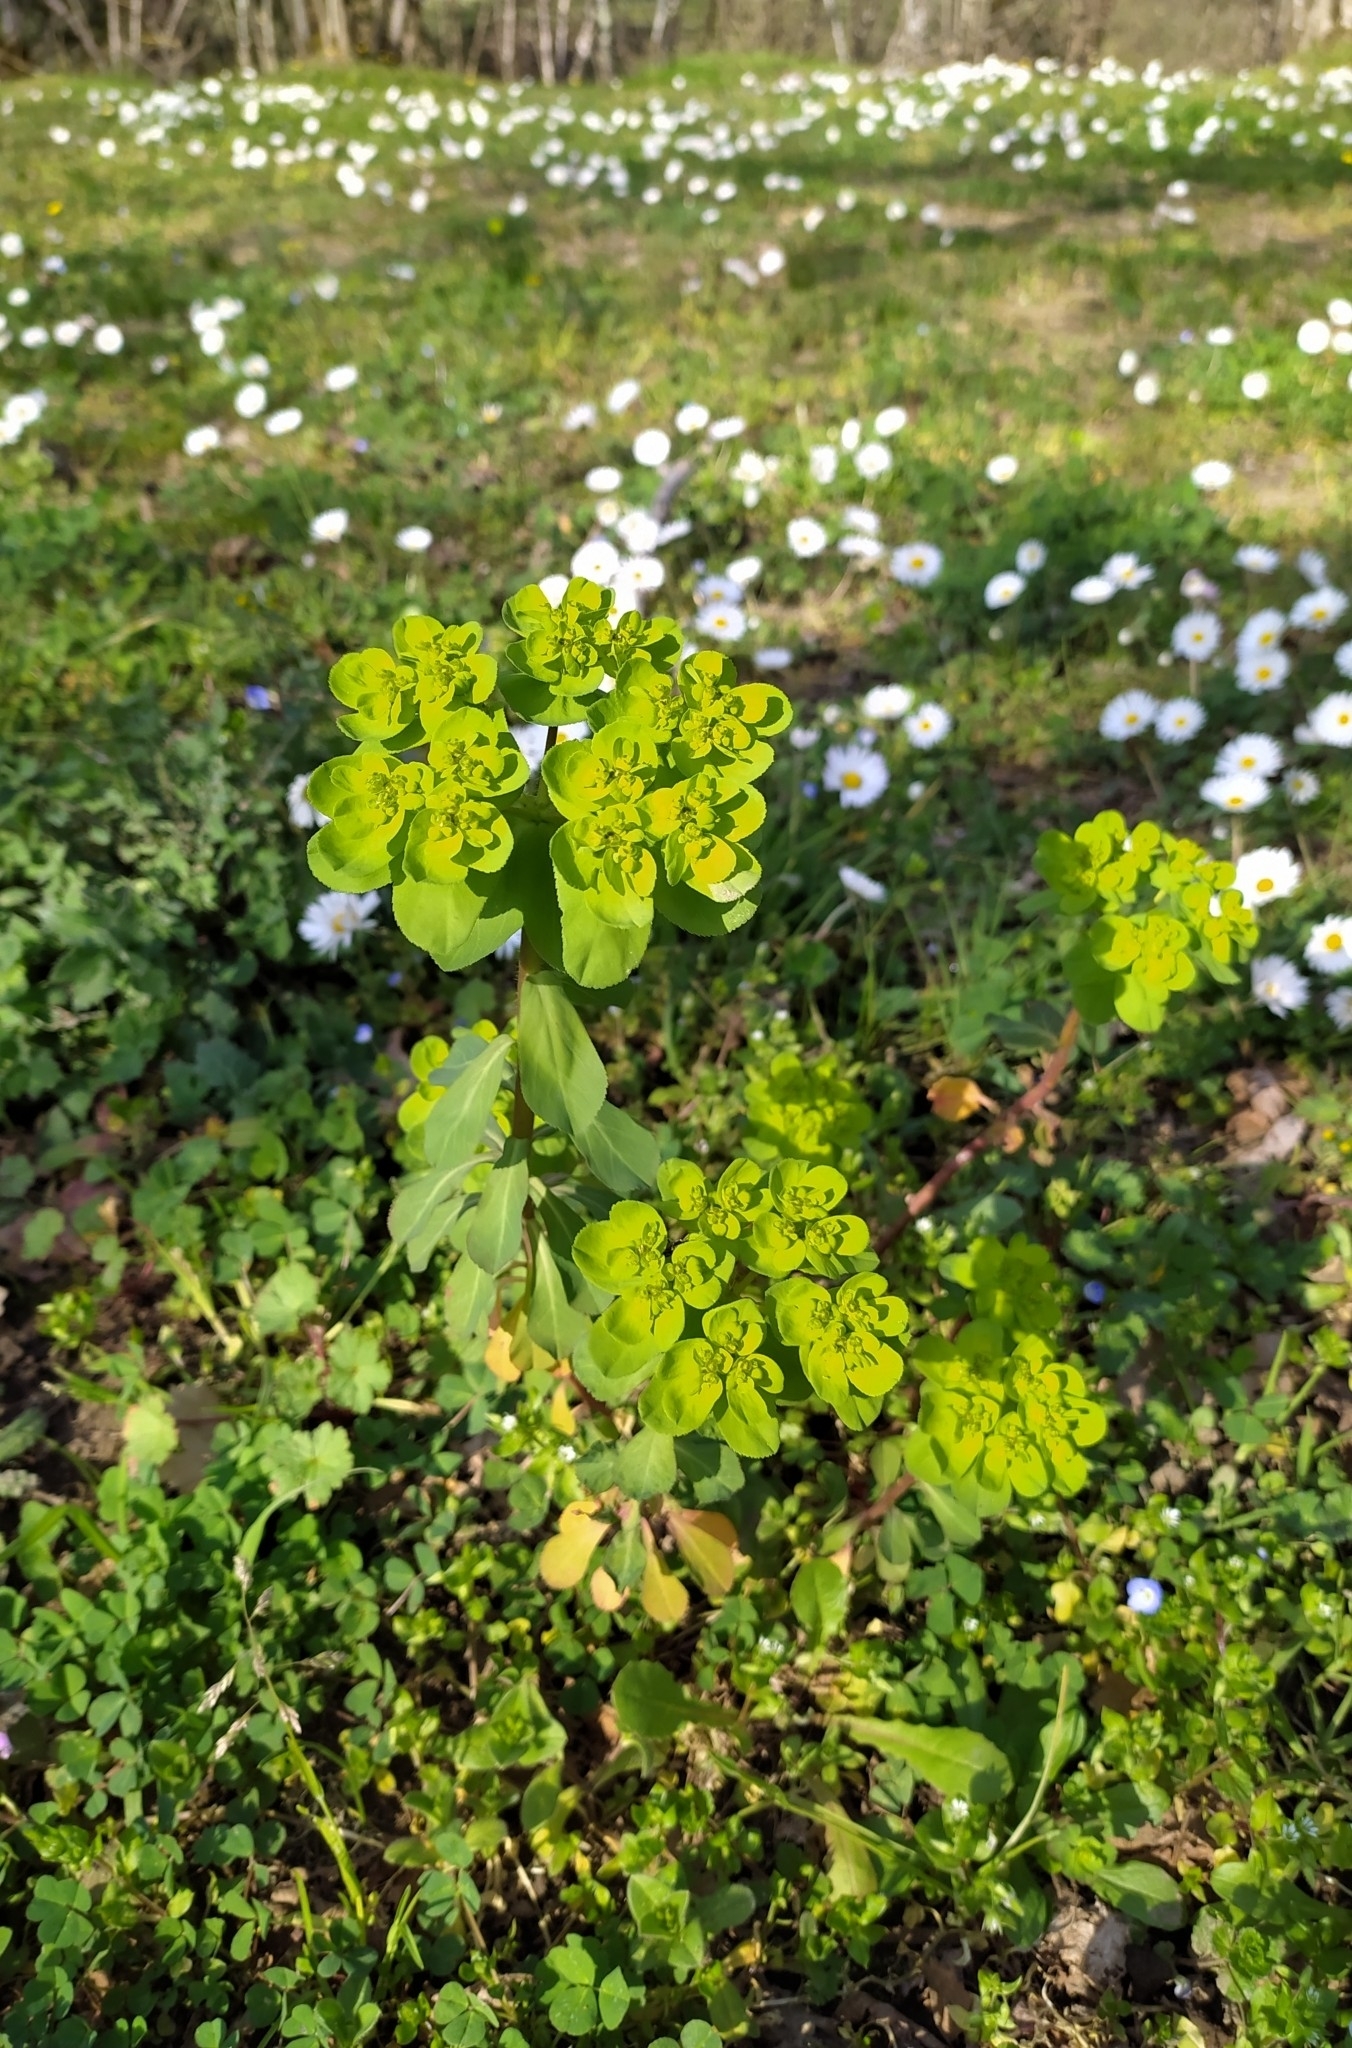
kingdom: Plantae
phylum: Tracheophyta
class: Magnoliopsida
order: Malpighiales
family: Euphorbiaceae
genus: Euphorbia
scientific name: Euphorbia helioscopia
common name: Sun spurge
